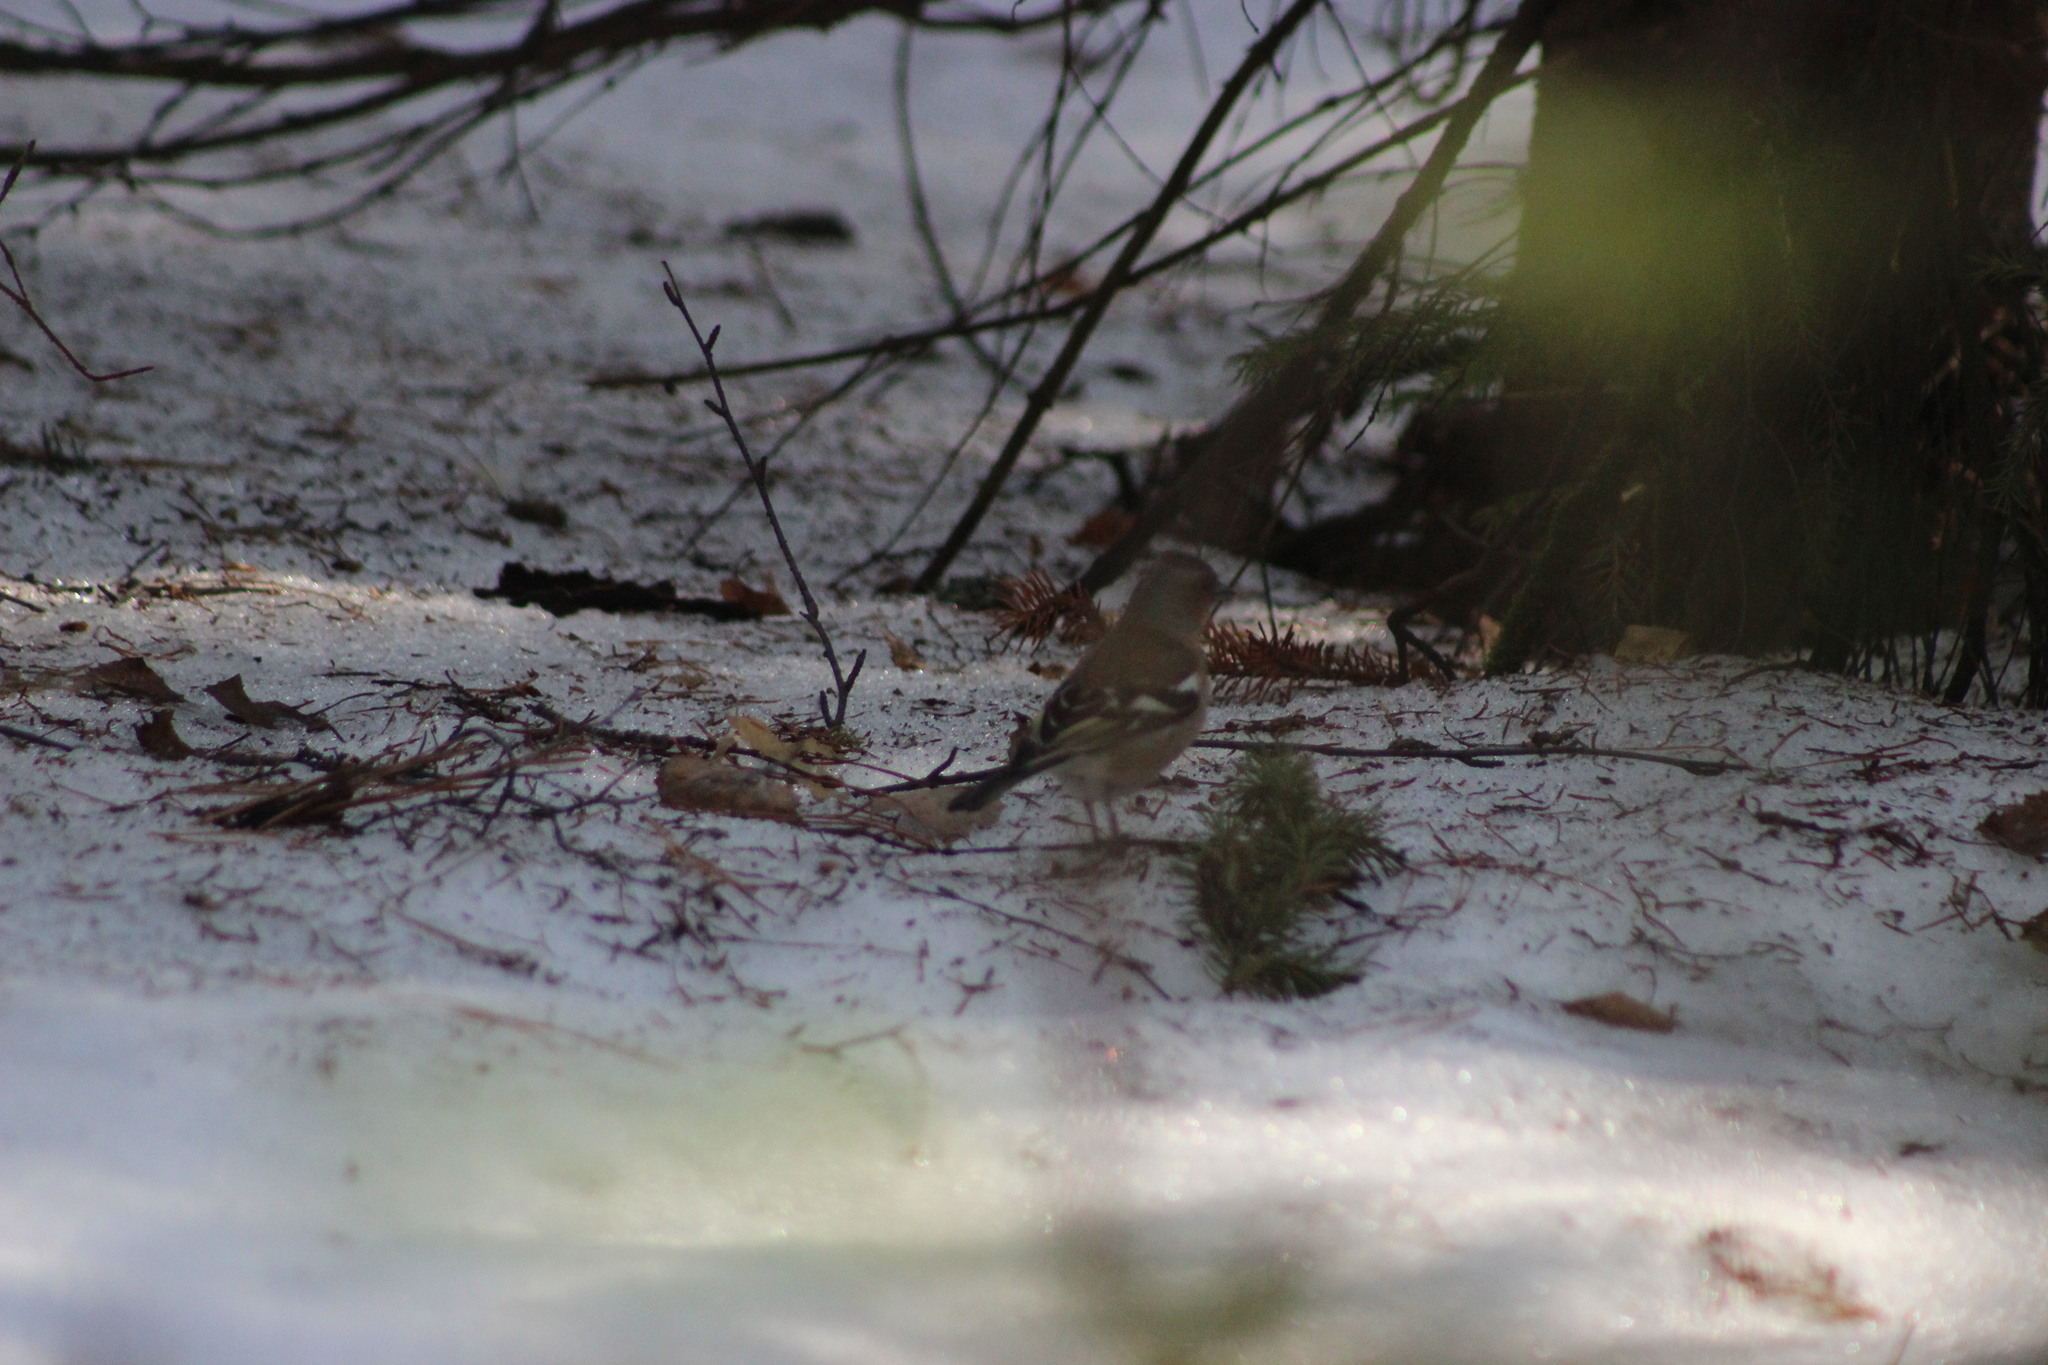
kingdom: Animalia
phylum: Chordata
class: Aves
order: Passeriformes
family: Fringillidae
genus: Fringilla
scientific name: Fringilla coelebs
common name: Common chaffinch
